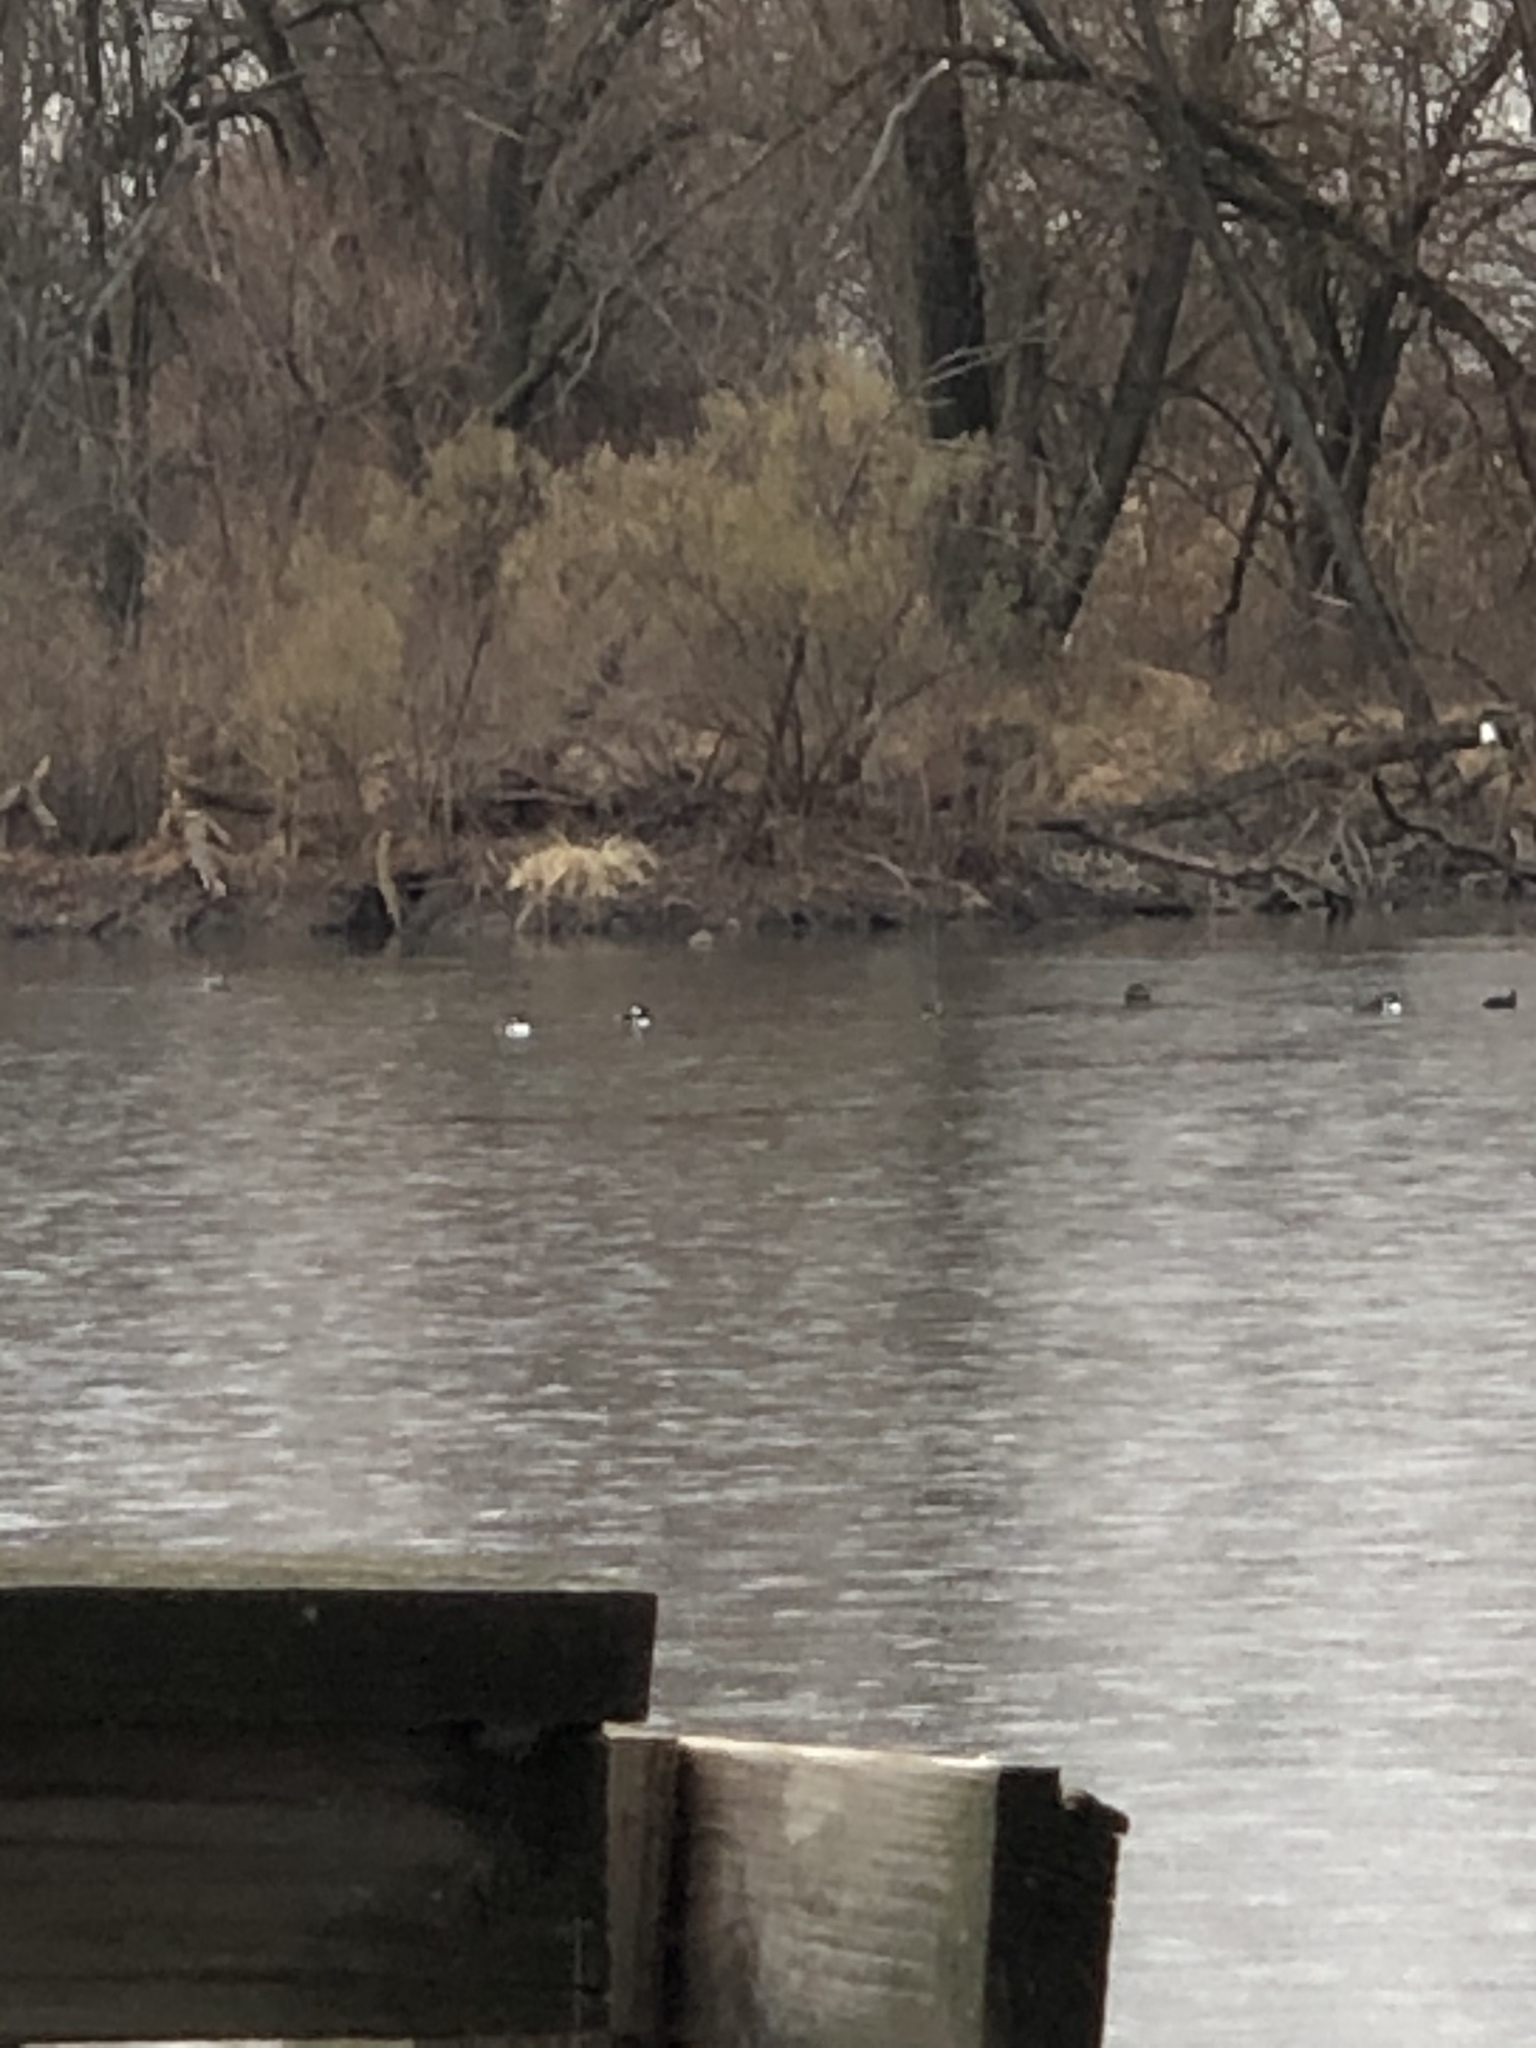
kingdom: Animalia
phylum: Chordata
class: Aves
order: Anseriformes
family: Anatidae
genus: Lophodytes
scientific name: Lophodytes cucullatus
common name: Hooded merganser
